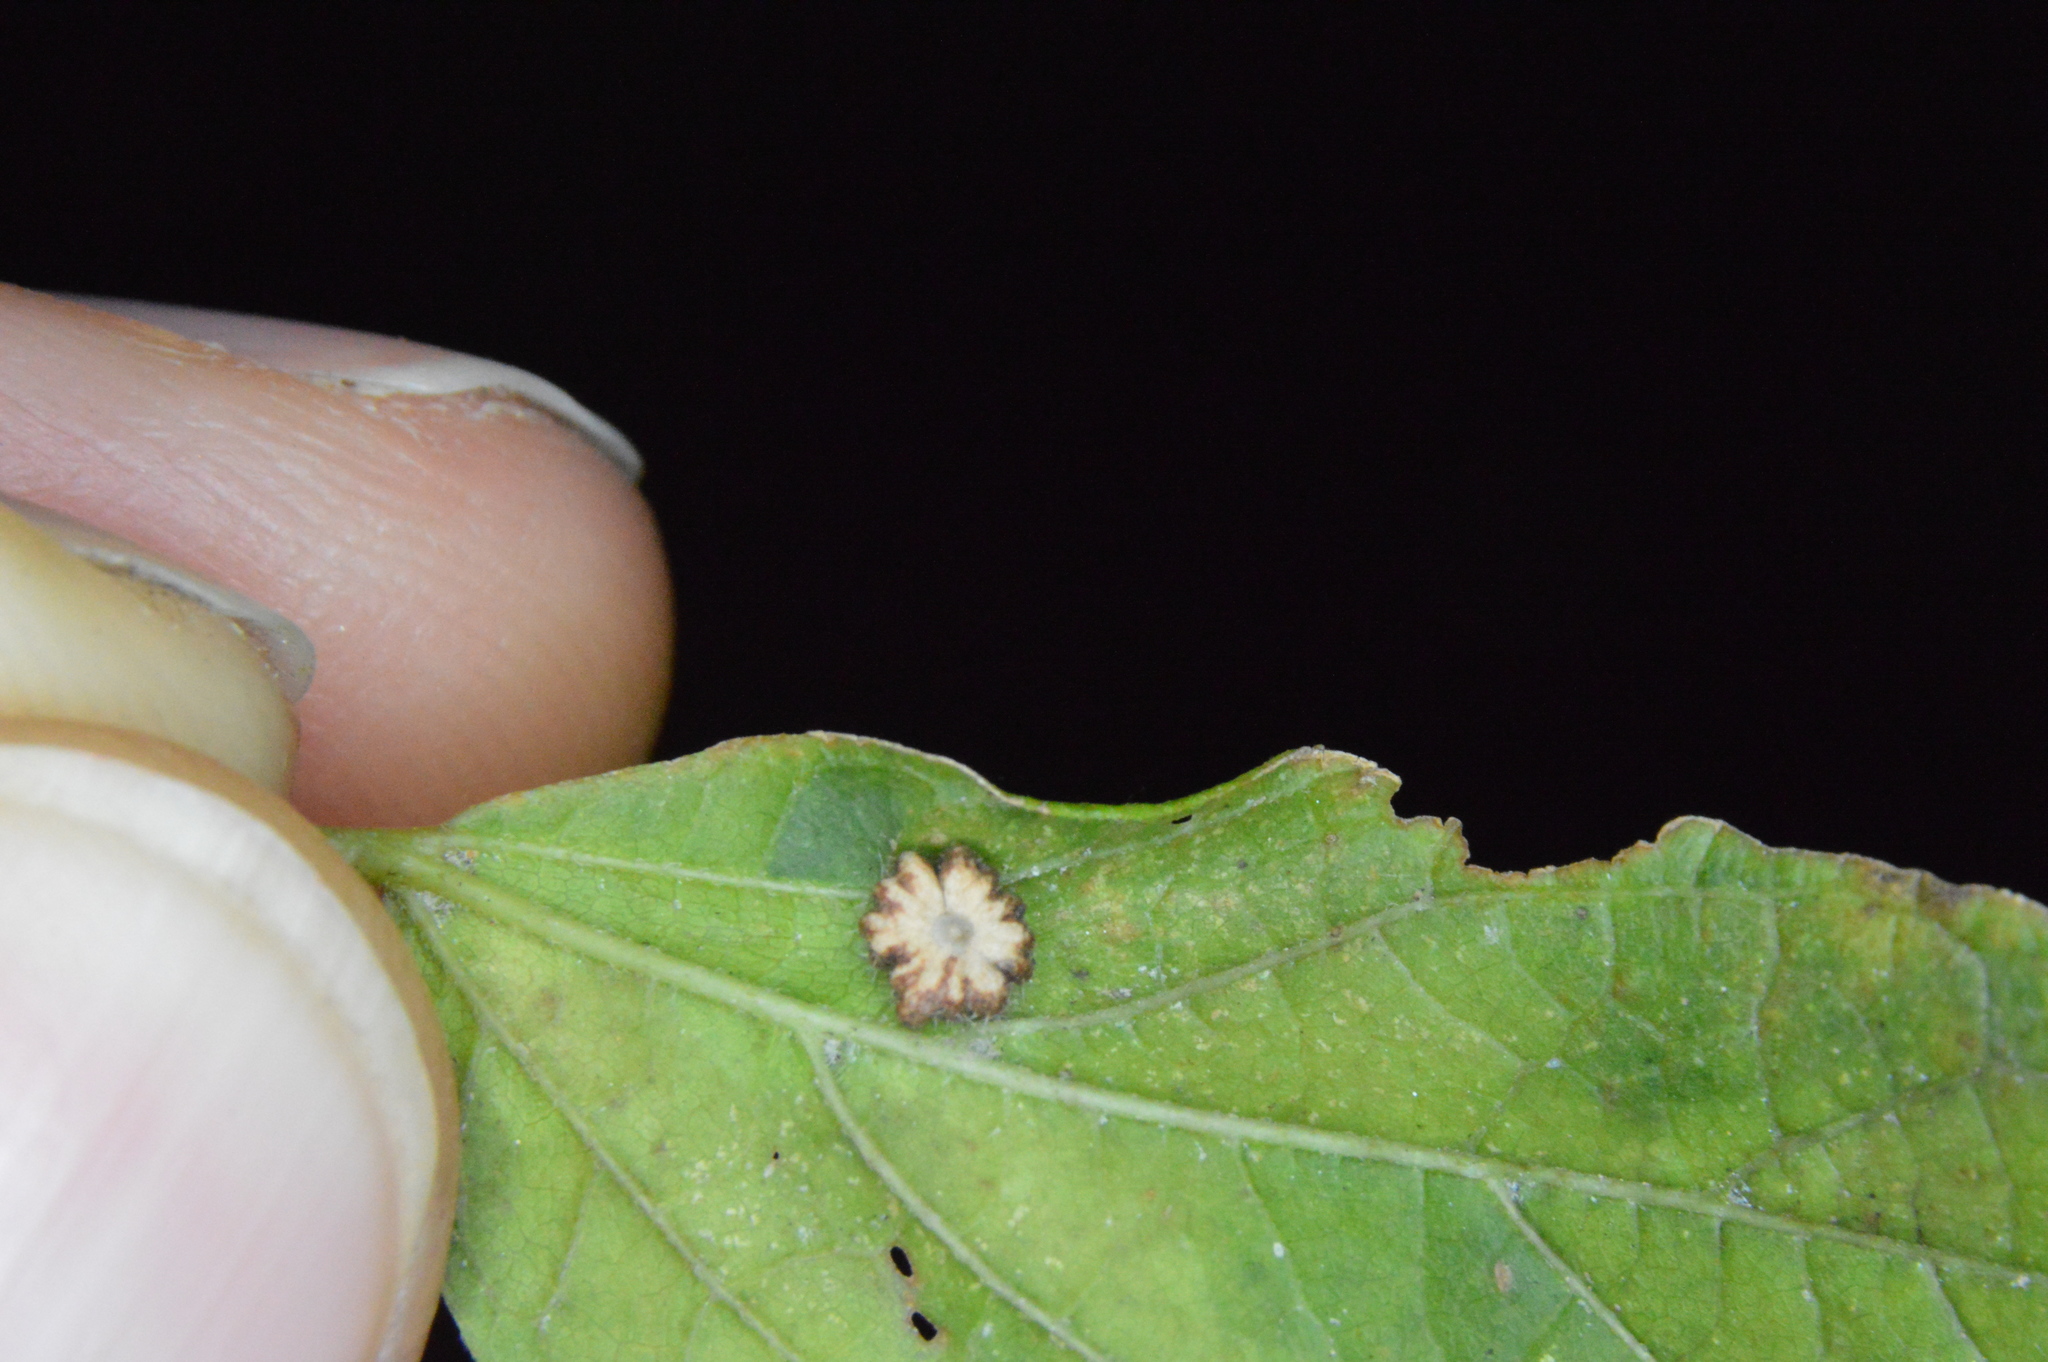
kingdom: Animalia
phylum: Arthropoda
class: Insecta
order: Diptera
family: Cecidomyiidae
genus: Celticecis
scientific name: Celticecis capsularis
